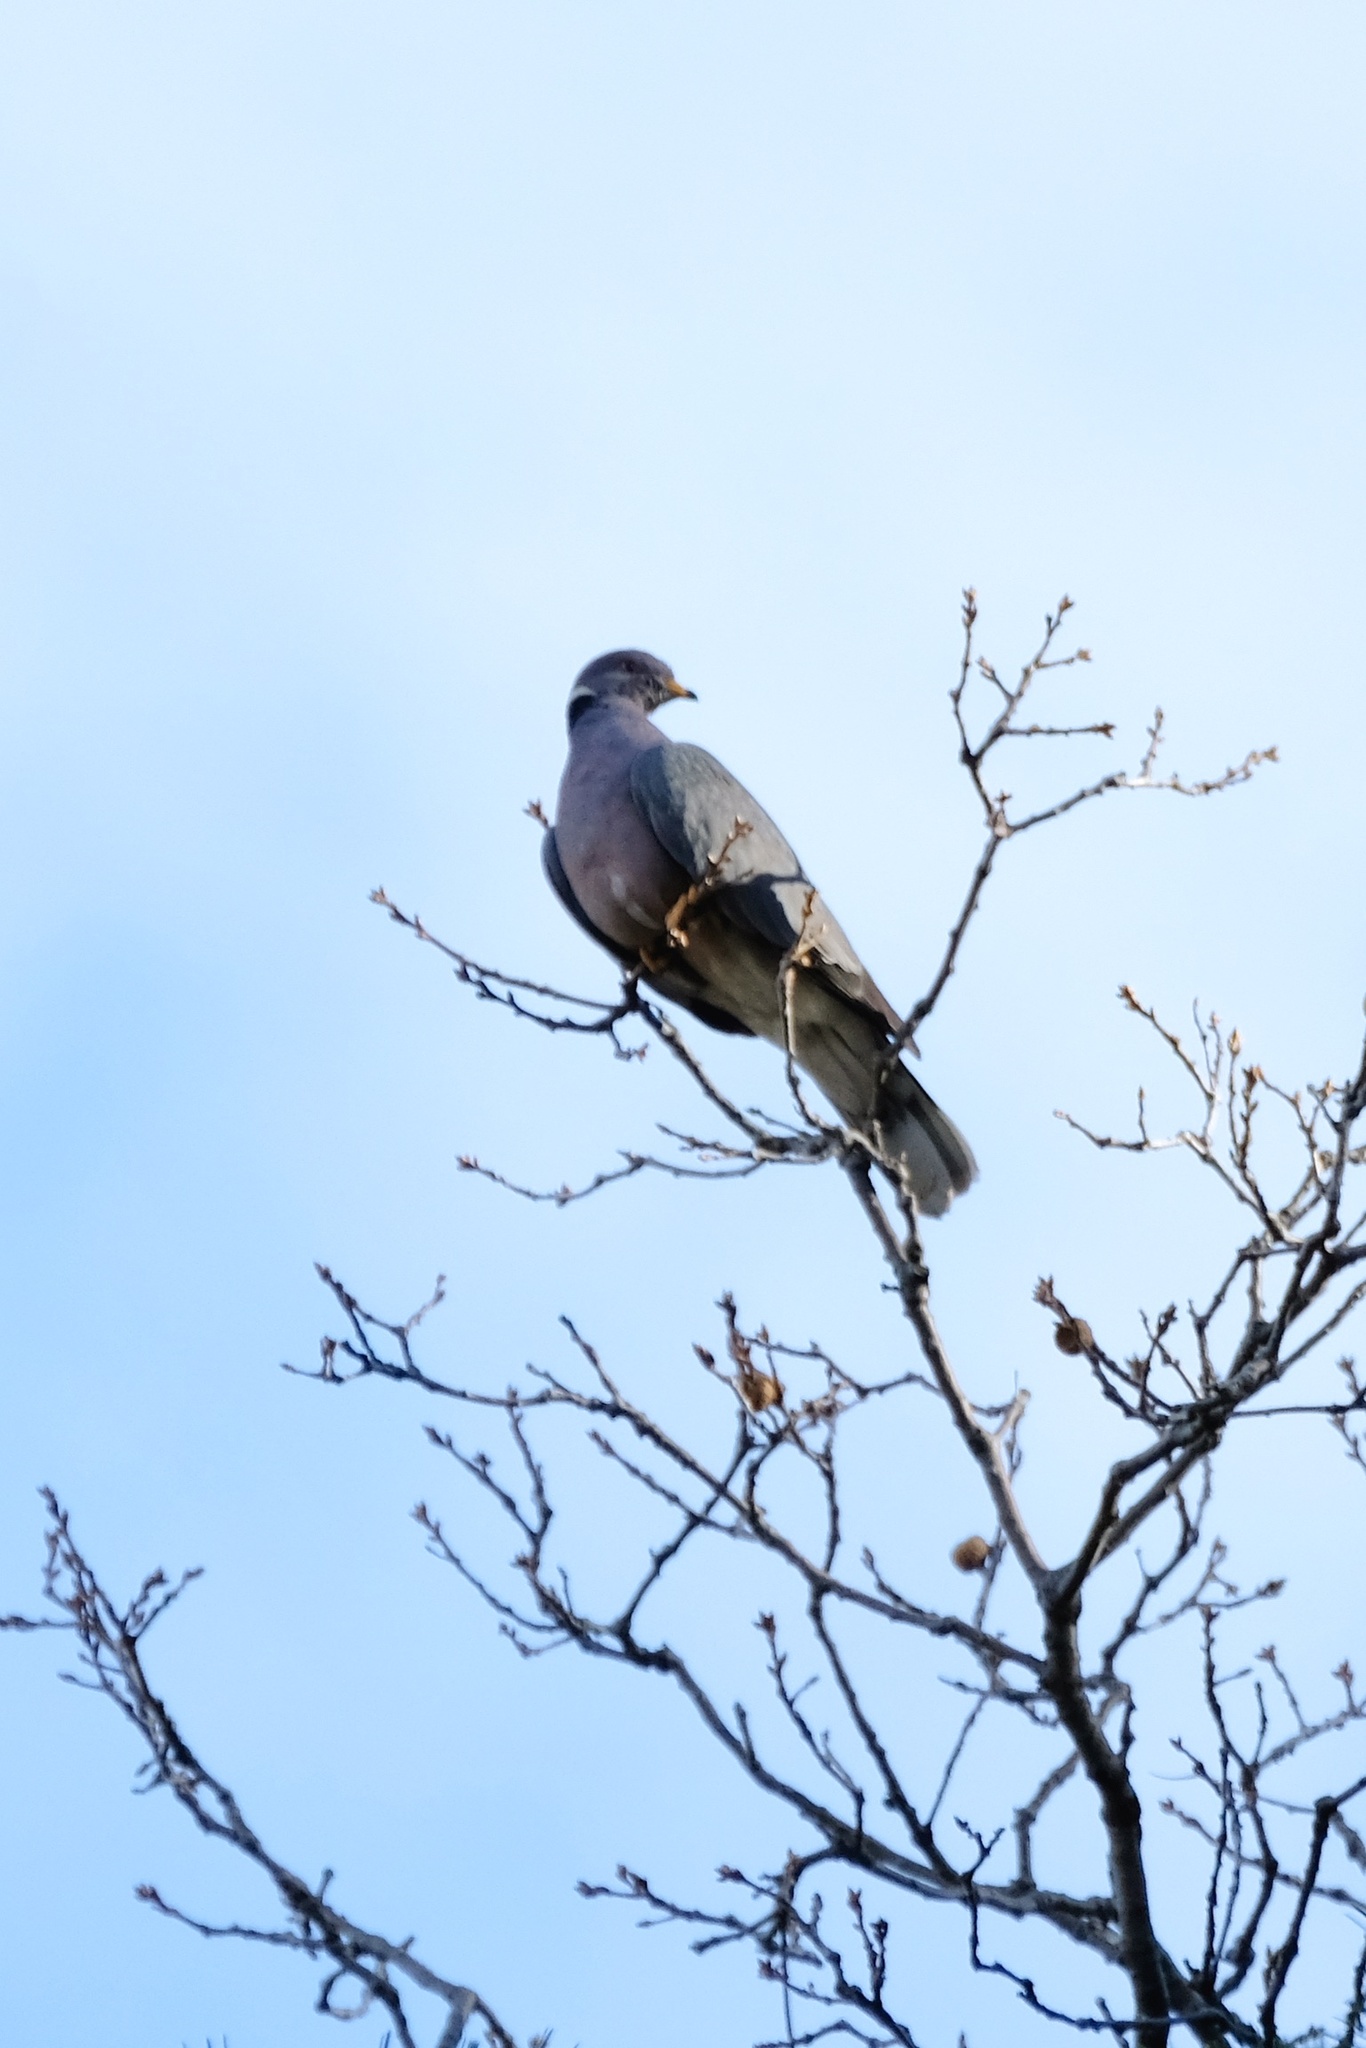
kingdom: Animalia
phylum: Chordata
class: Aves
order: Columbiformes
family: Columbidae
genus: Patagioenas
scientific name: Patagioenas fasciata
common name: Band-tailed pigeon
